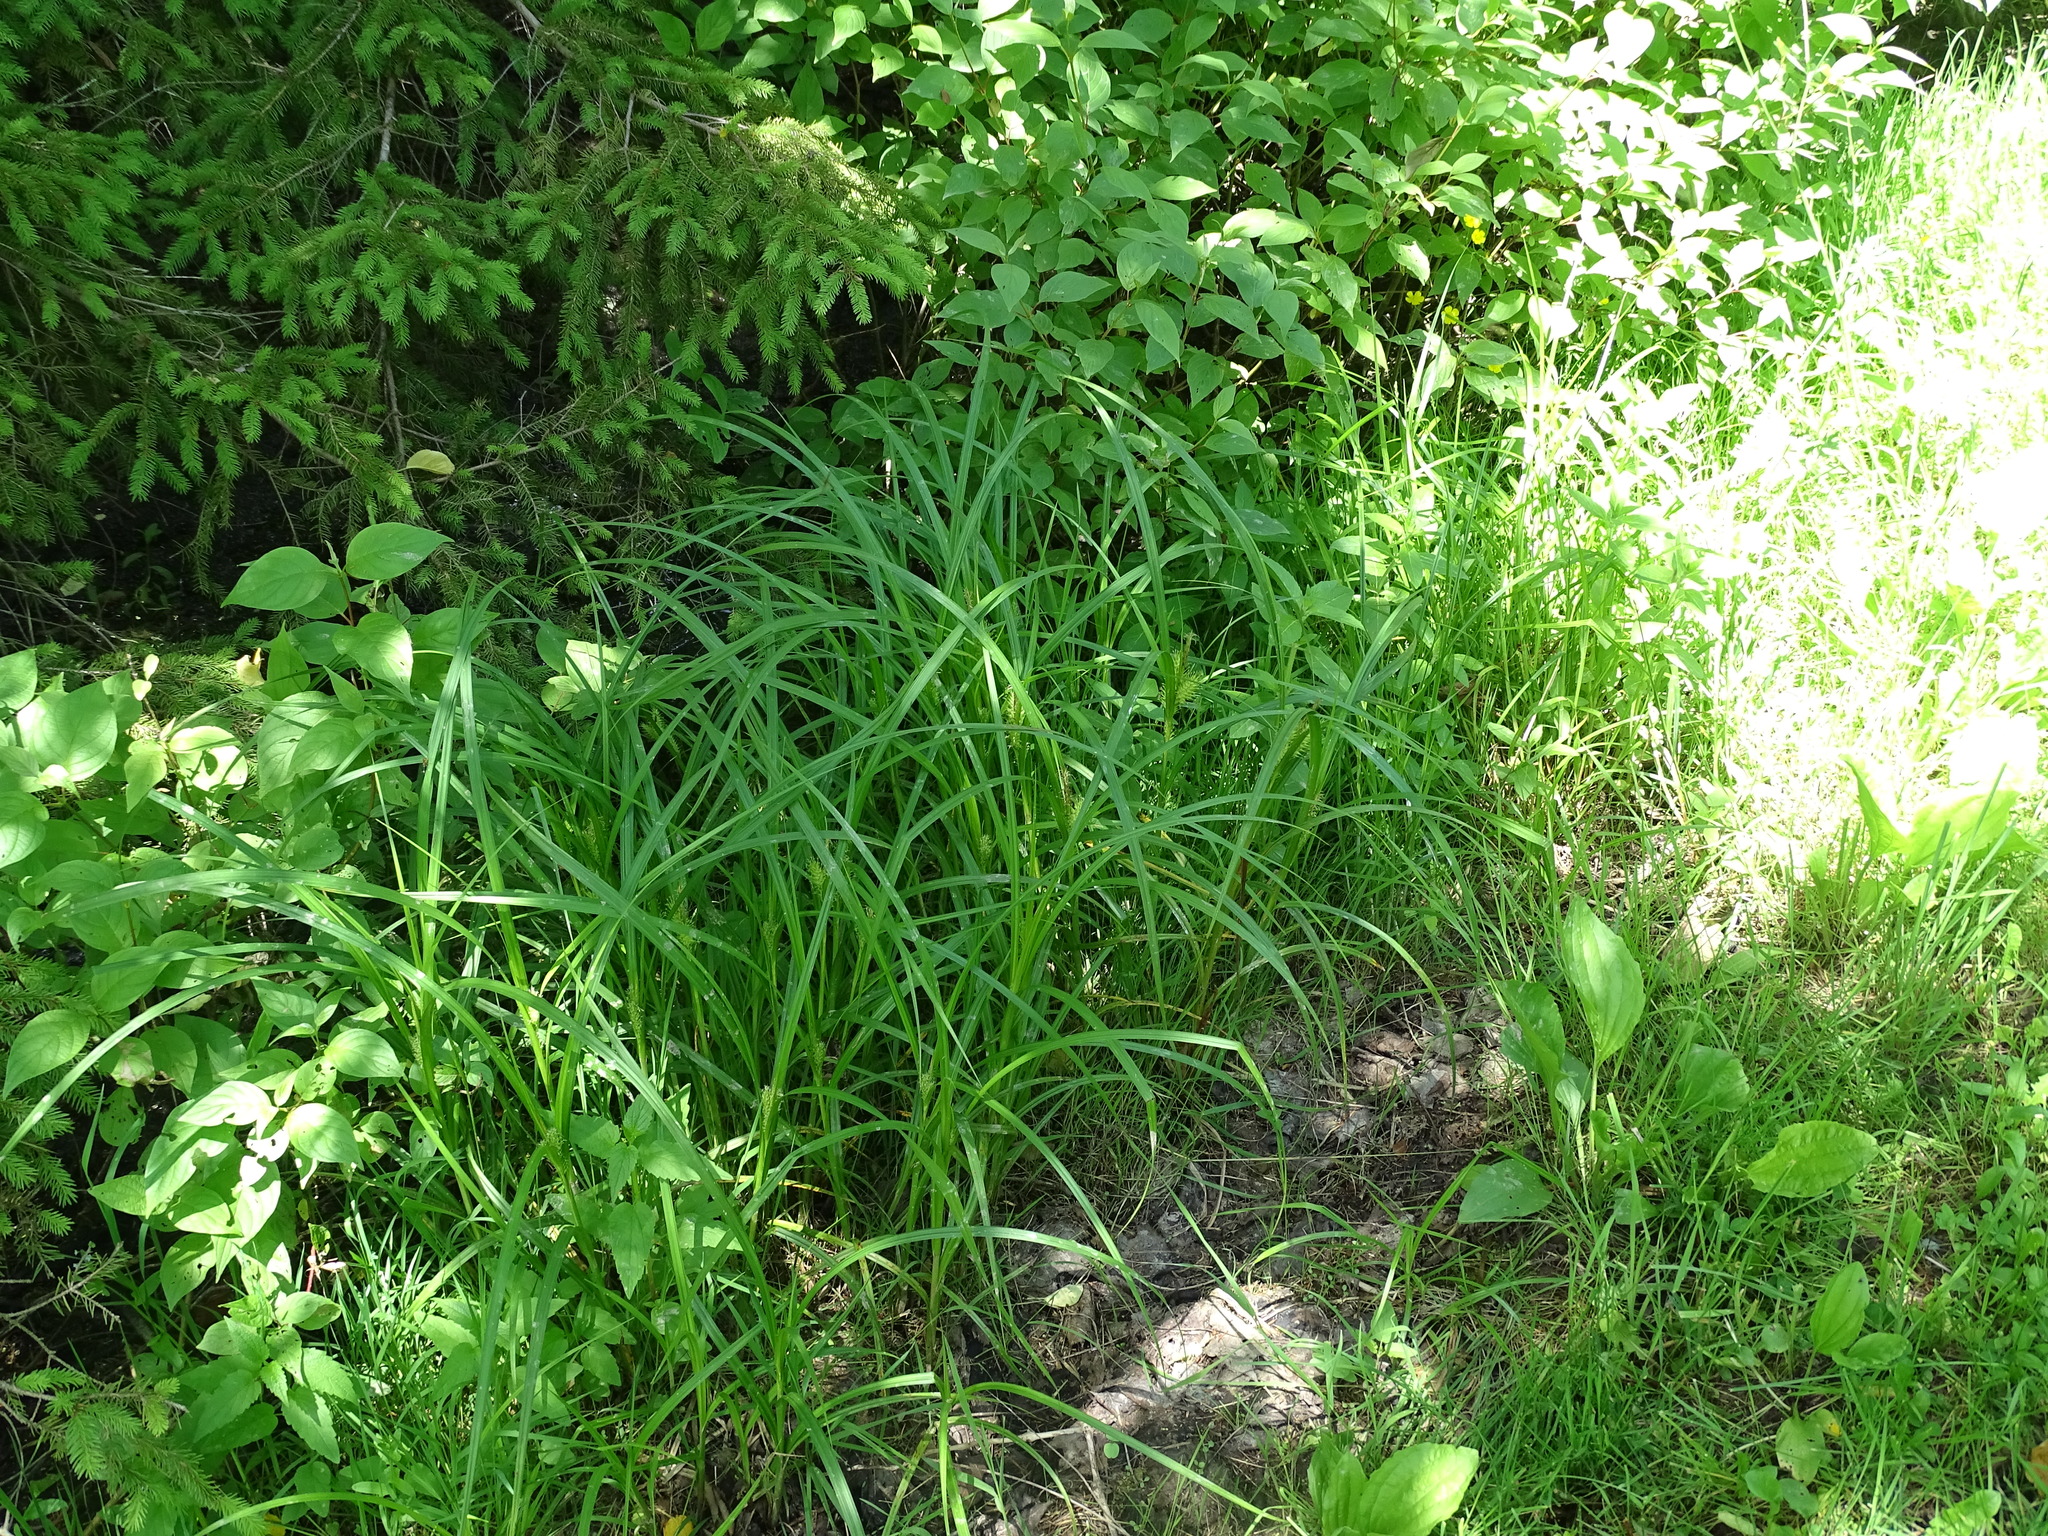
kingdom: Plantae
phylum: Tracheophyta
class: Liliopsida
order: Poales
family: Cyperaceae
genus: Carex
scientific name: Carex lupulina
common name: Hop sedge
